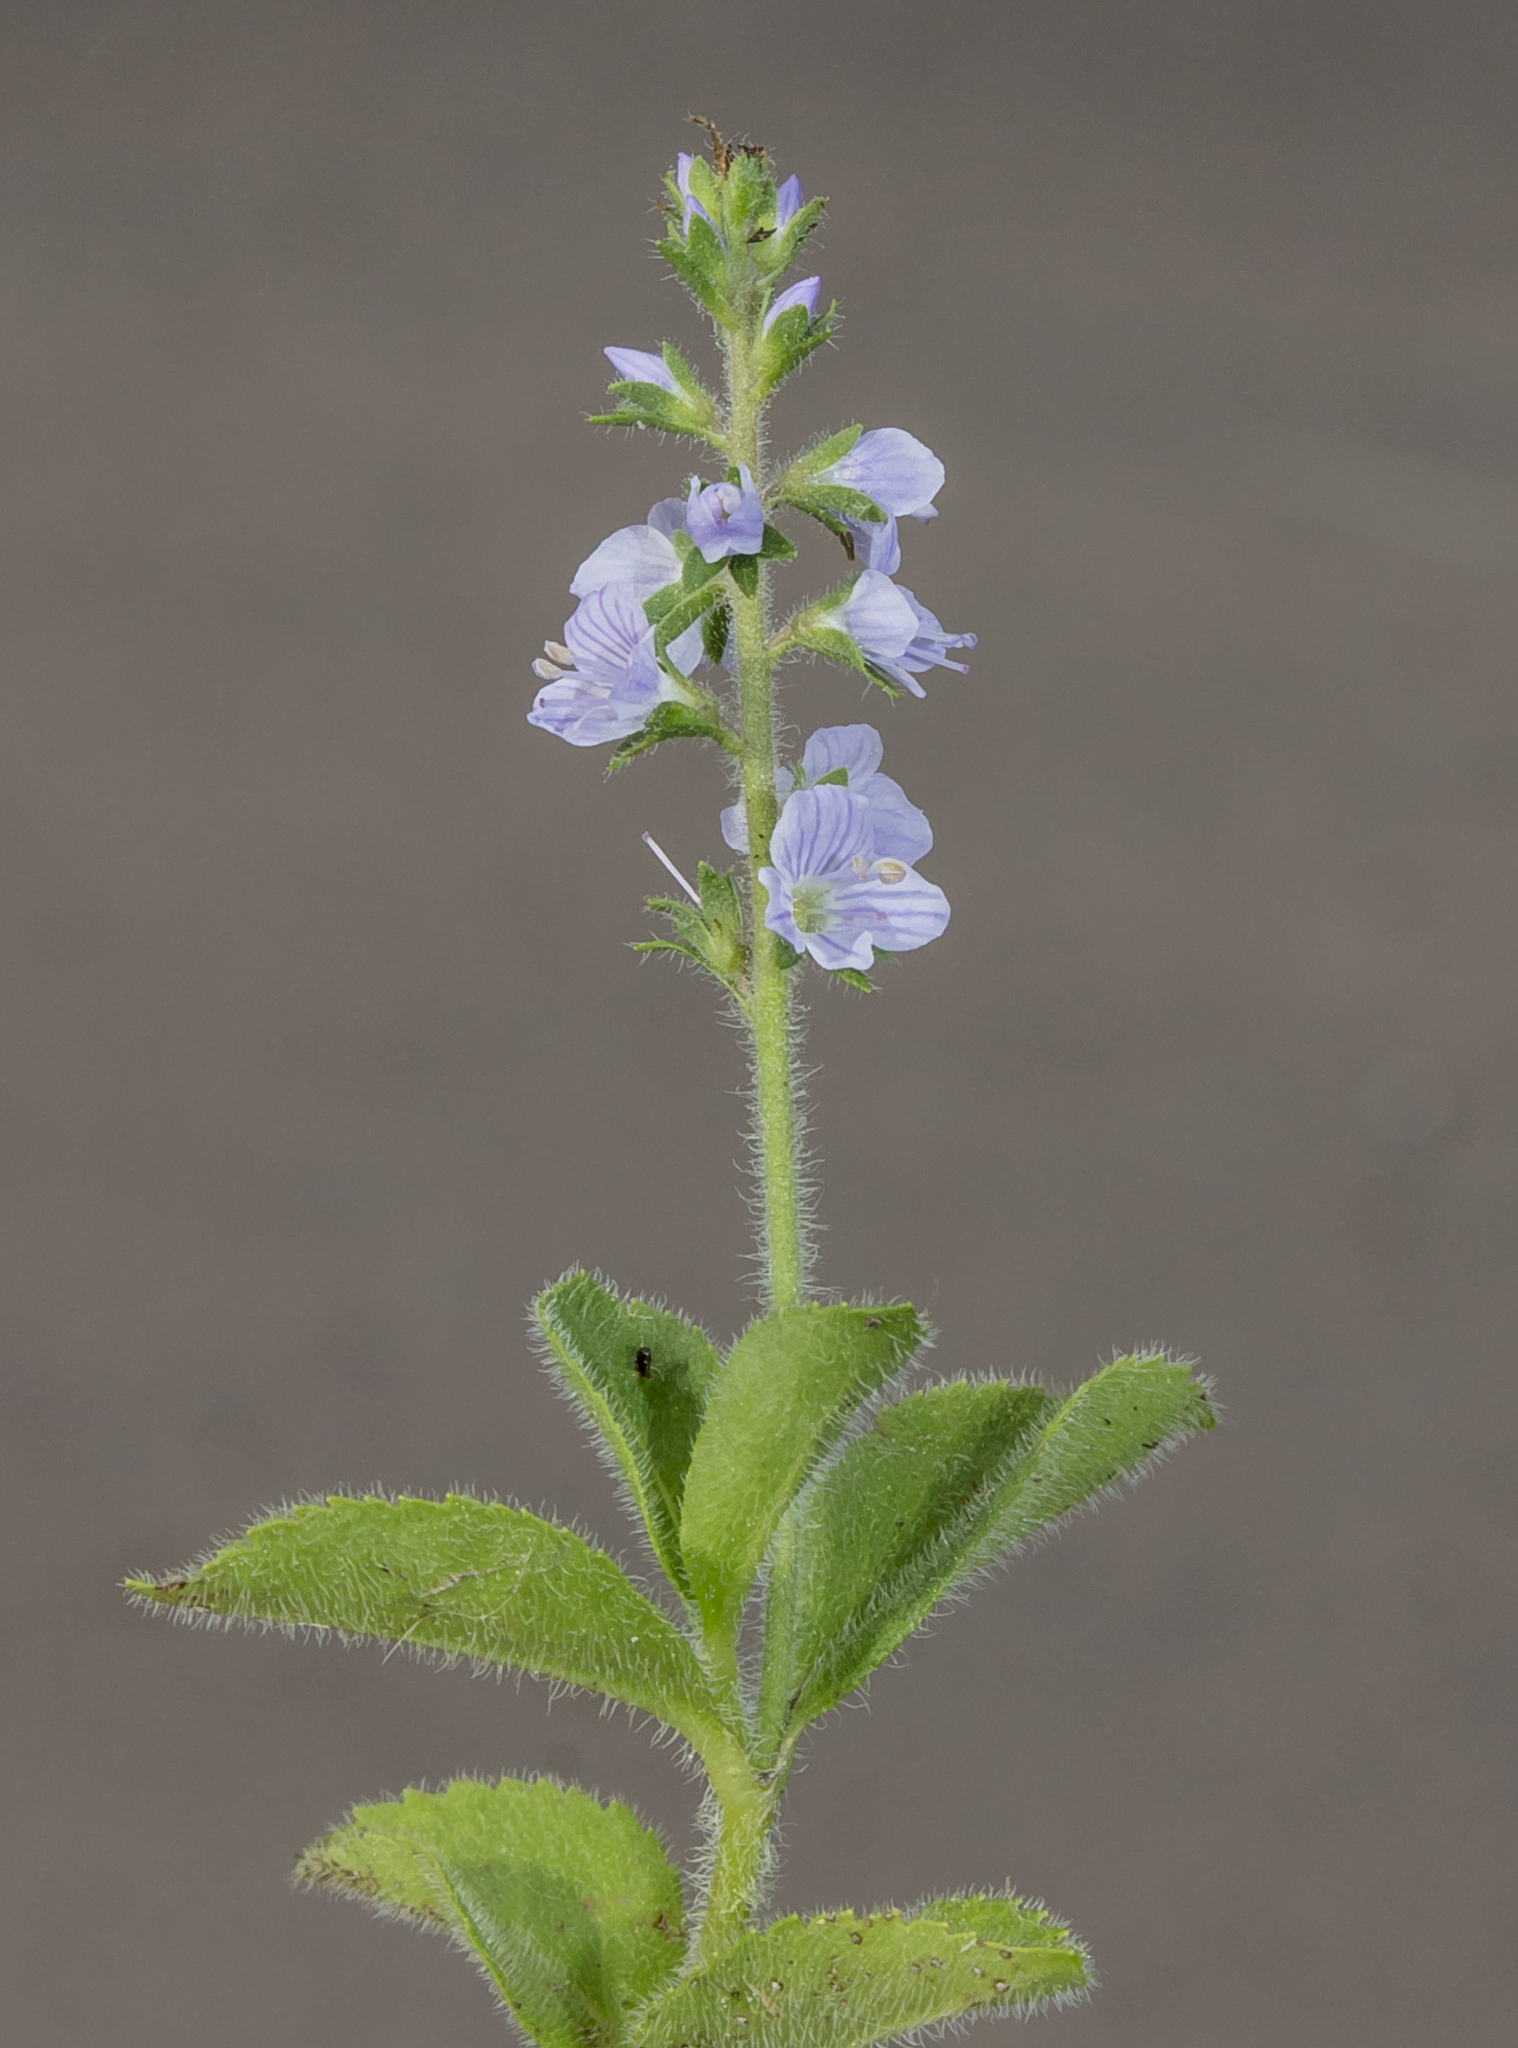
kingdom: Plantae
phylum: Tracheophyta
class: Magnoliopsida
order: Lamiales
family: Plantaginaceae
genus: Veronica
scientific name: Veronica officinalis
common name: Common speedwell
